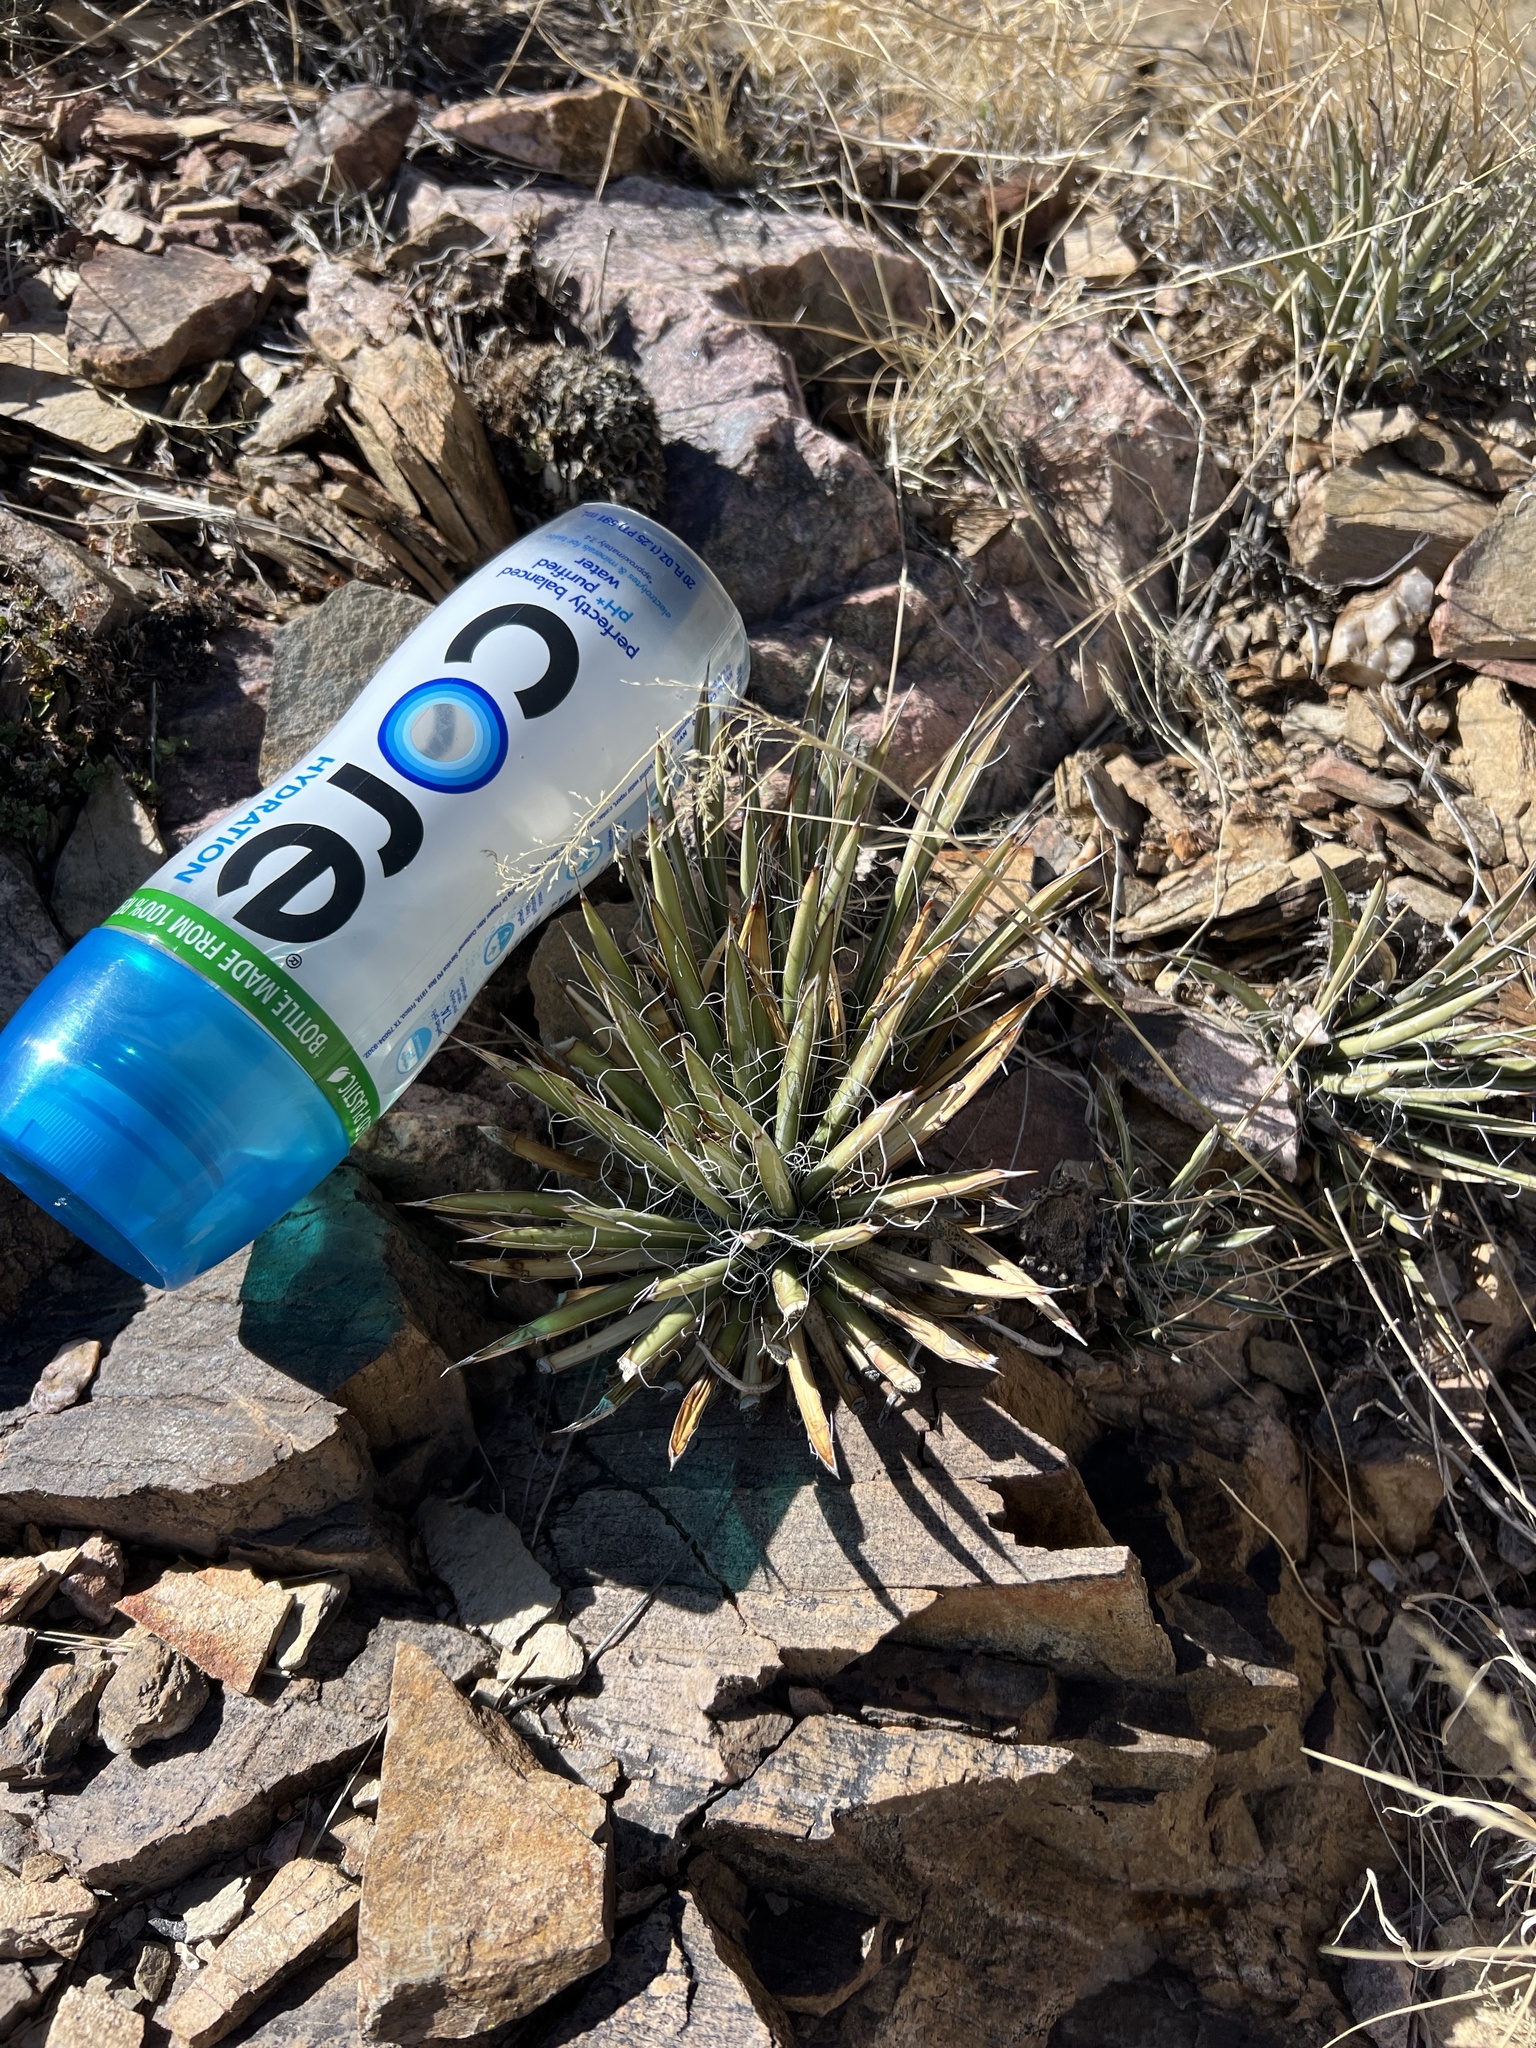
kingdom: Plantae
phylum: Tracheophyta
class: Liliopsida
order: Asparagales
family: Asparagaceae
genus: Agave
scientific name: Agave schottii
